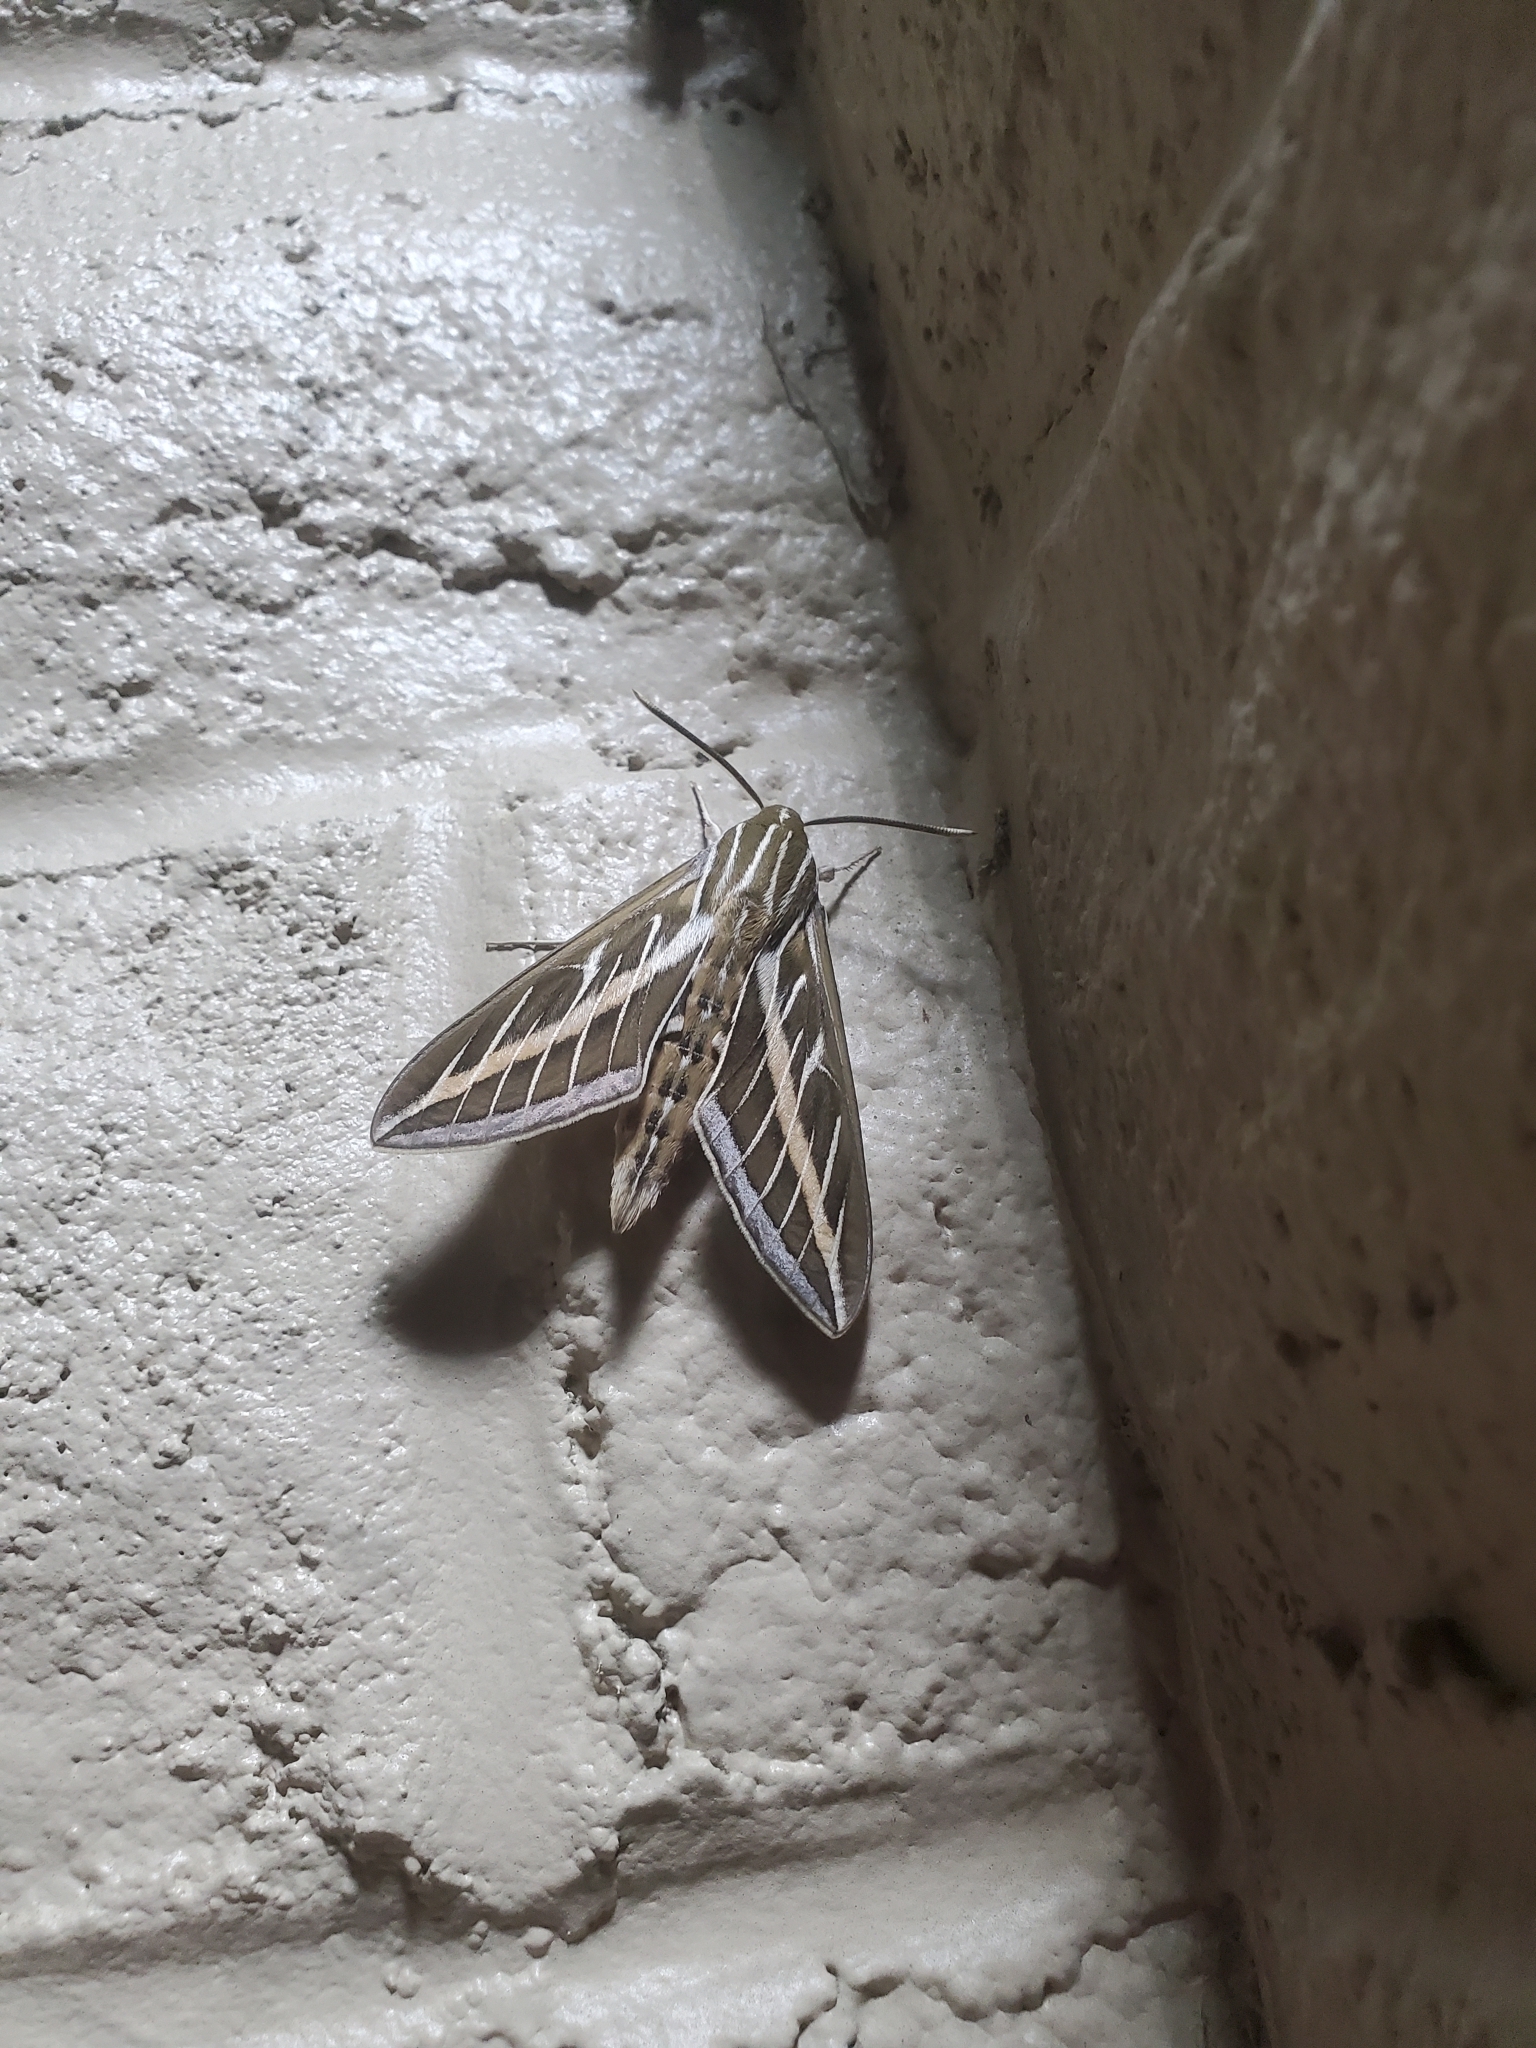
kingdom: Animalia
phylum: Arthropoda
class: Insecta
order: Lepidoptera
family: Sphingidae
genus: Hyles
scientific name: Hyles lineata
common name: White-lined sphinx
